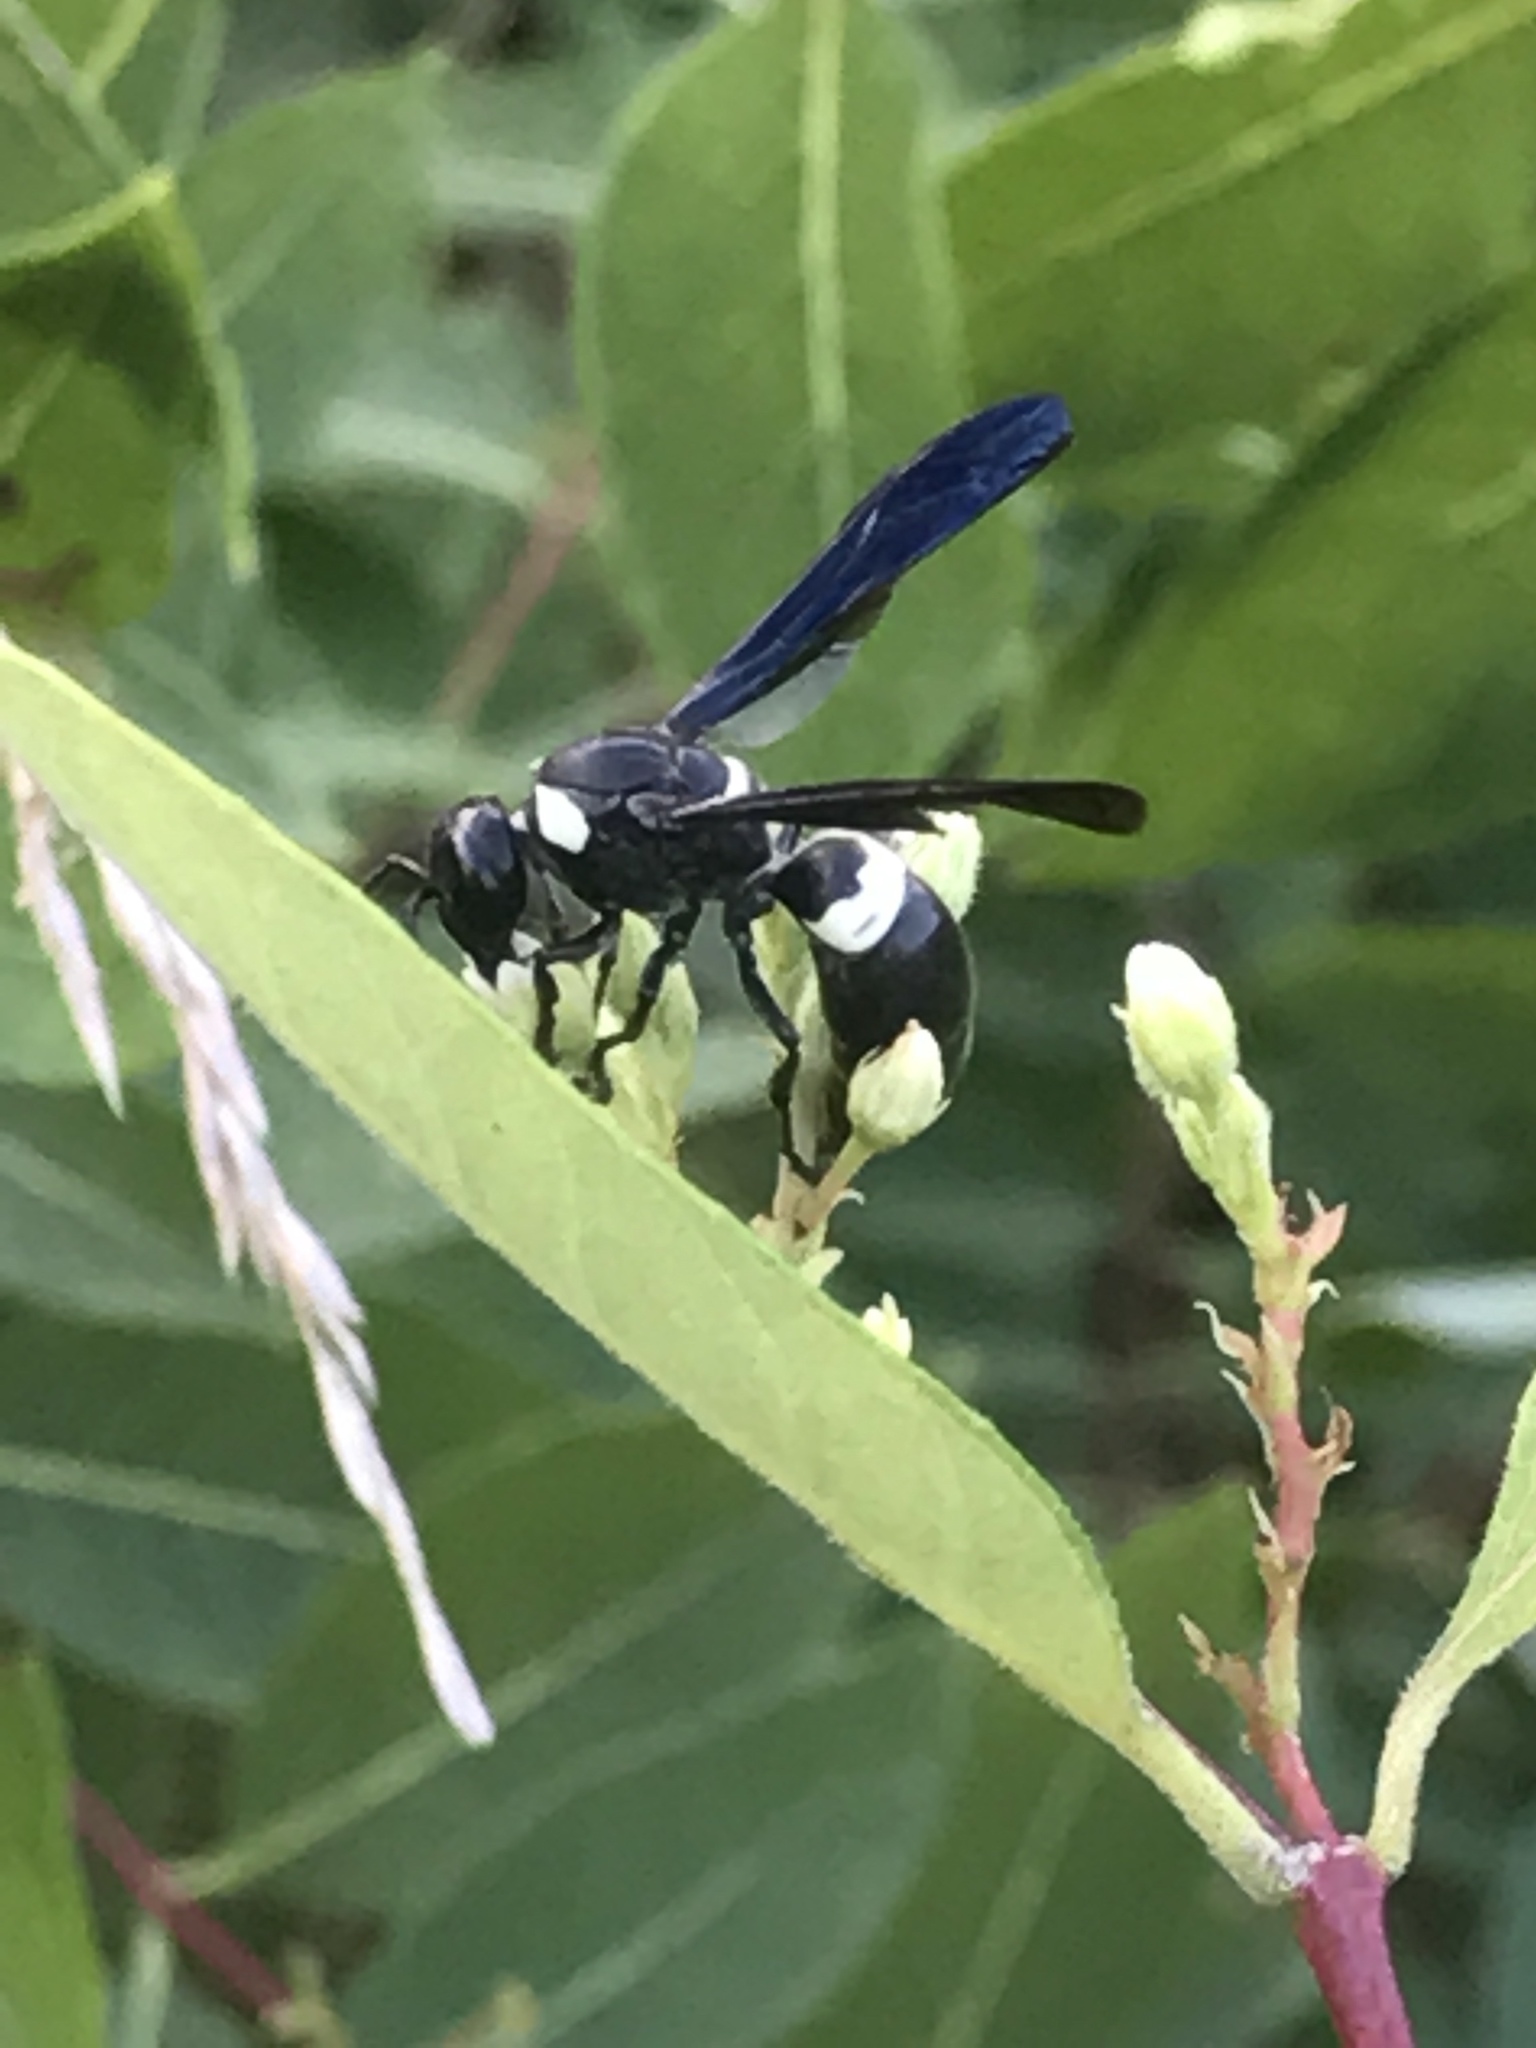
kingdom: Animalia
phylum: Arthropoda
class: Insecta
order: Hymenoptera
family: Eumenidae
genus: Monobia
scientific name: Monobia quadridens
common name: Four-toothed mason wasp
